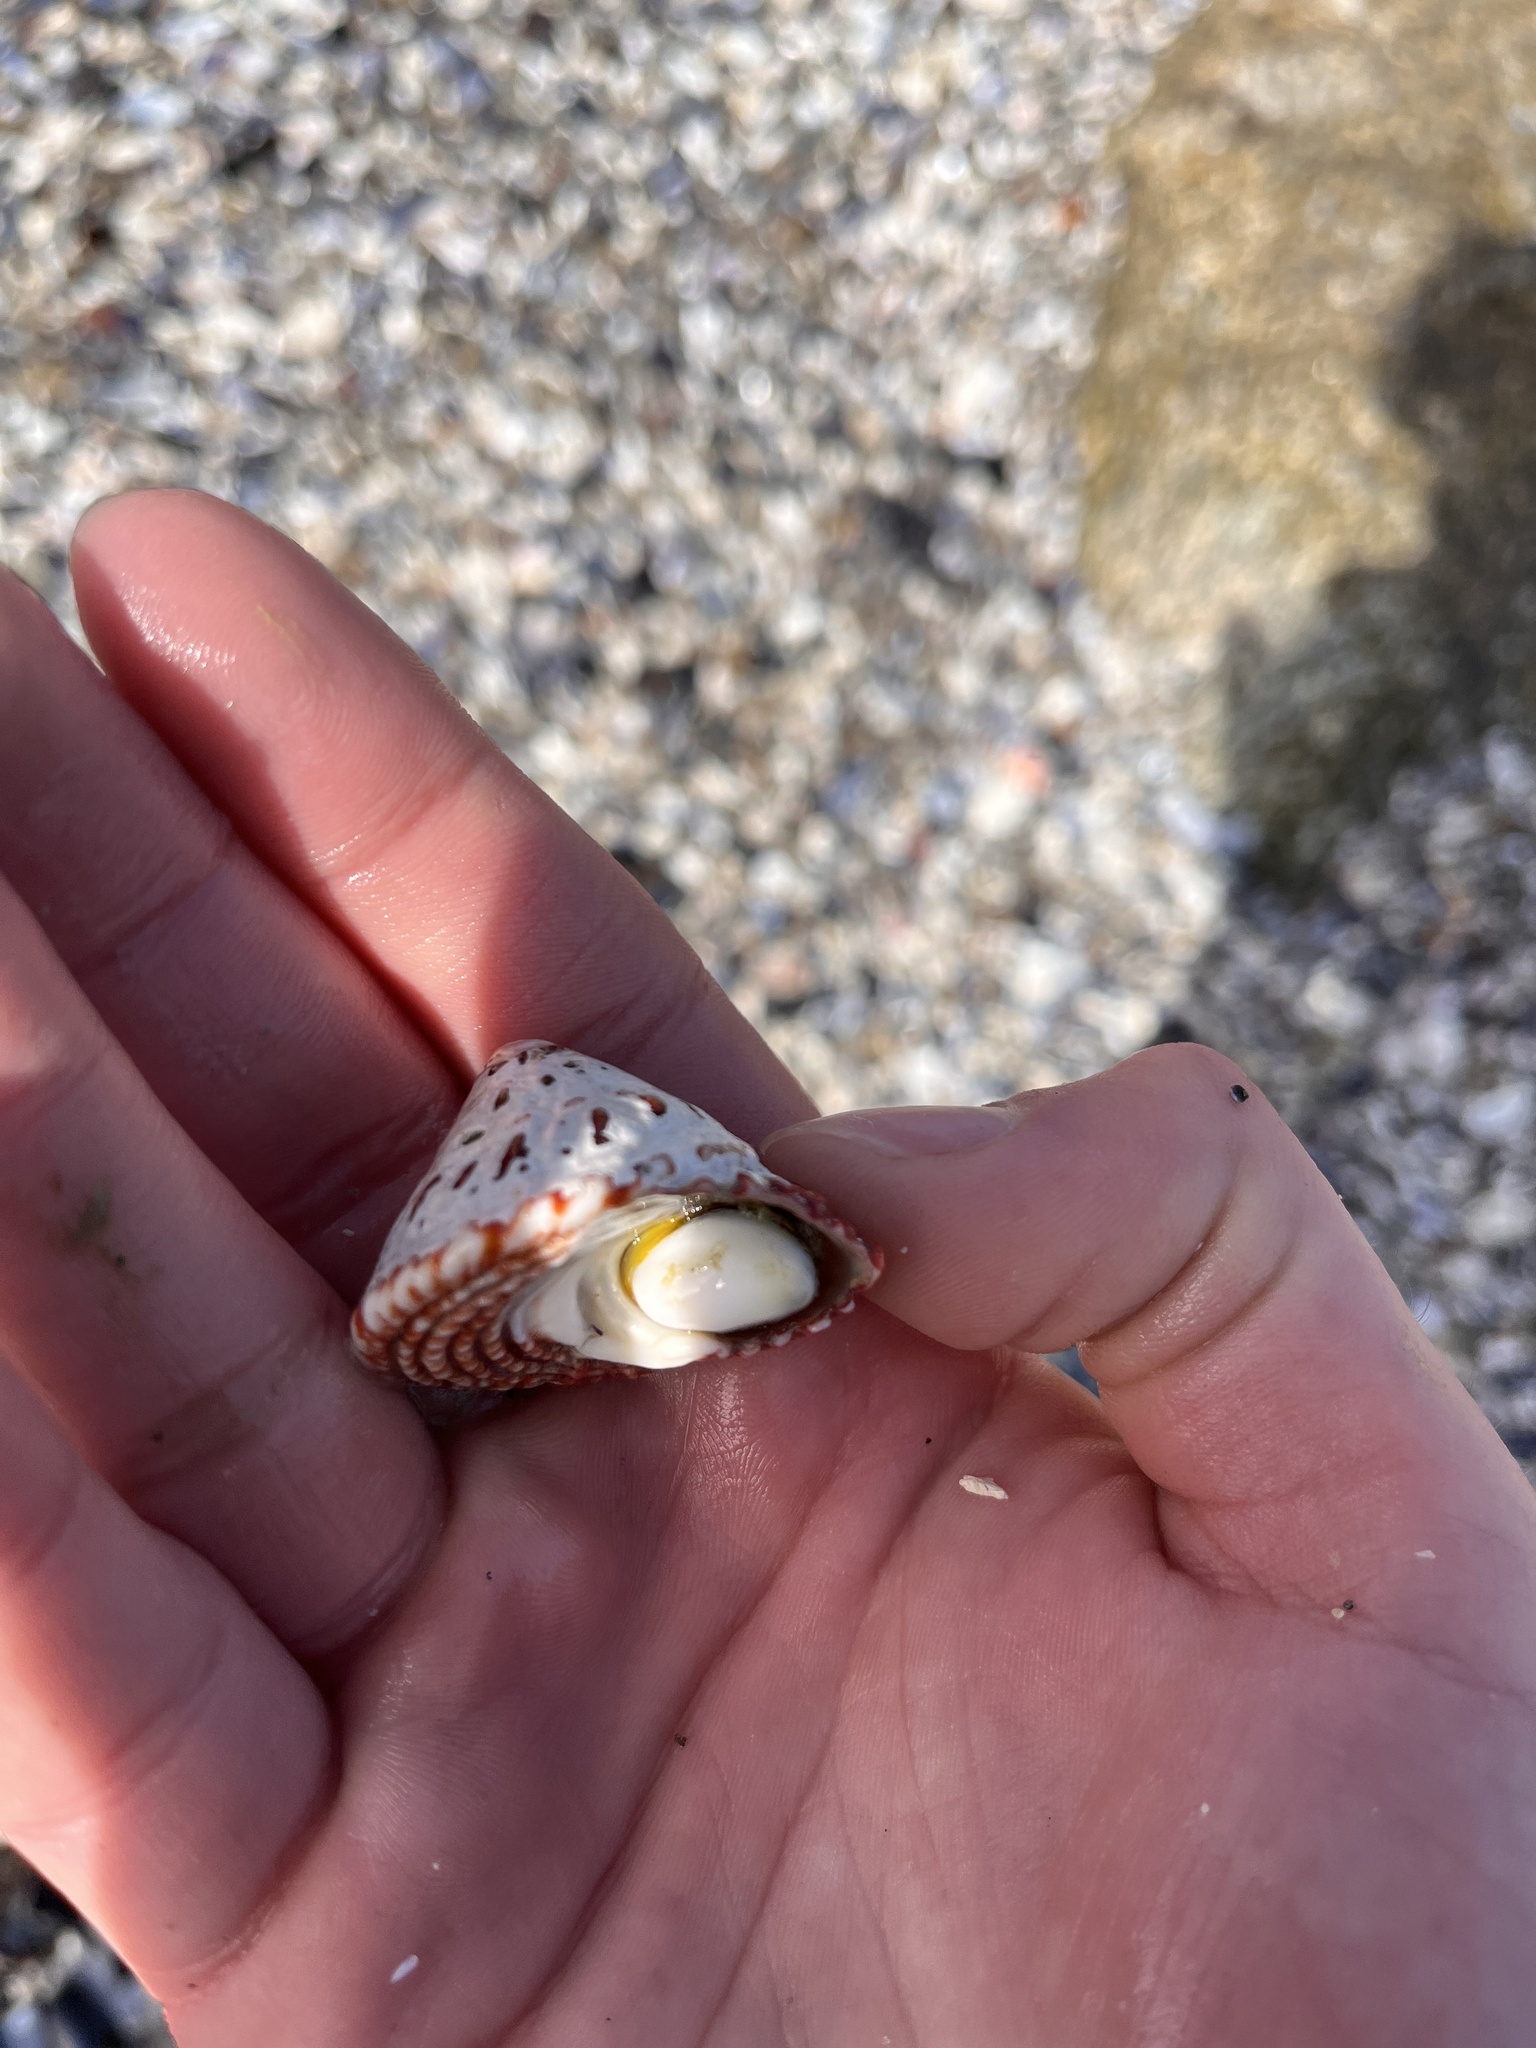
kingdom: Animalia
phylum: Mollusca
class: Gastropoda
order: Trochida
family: Turbinidae
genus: Pomaulax
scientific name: Pomaulax gibberosus
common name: Red turban
